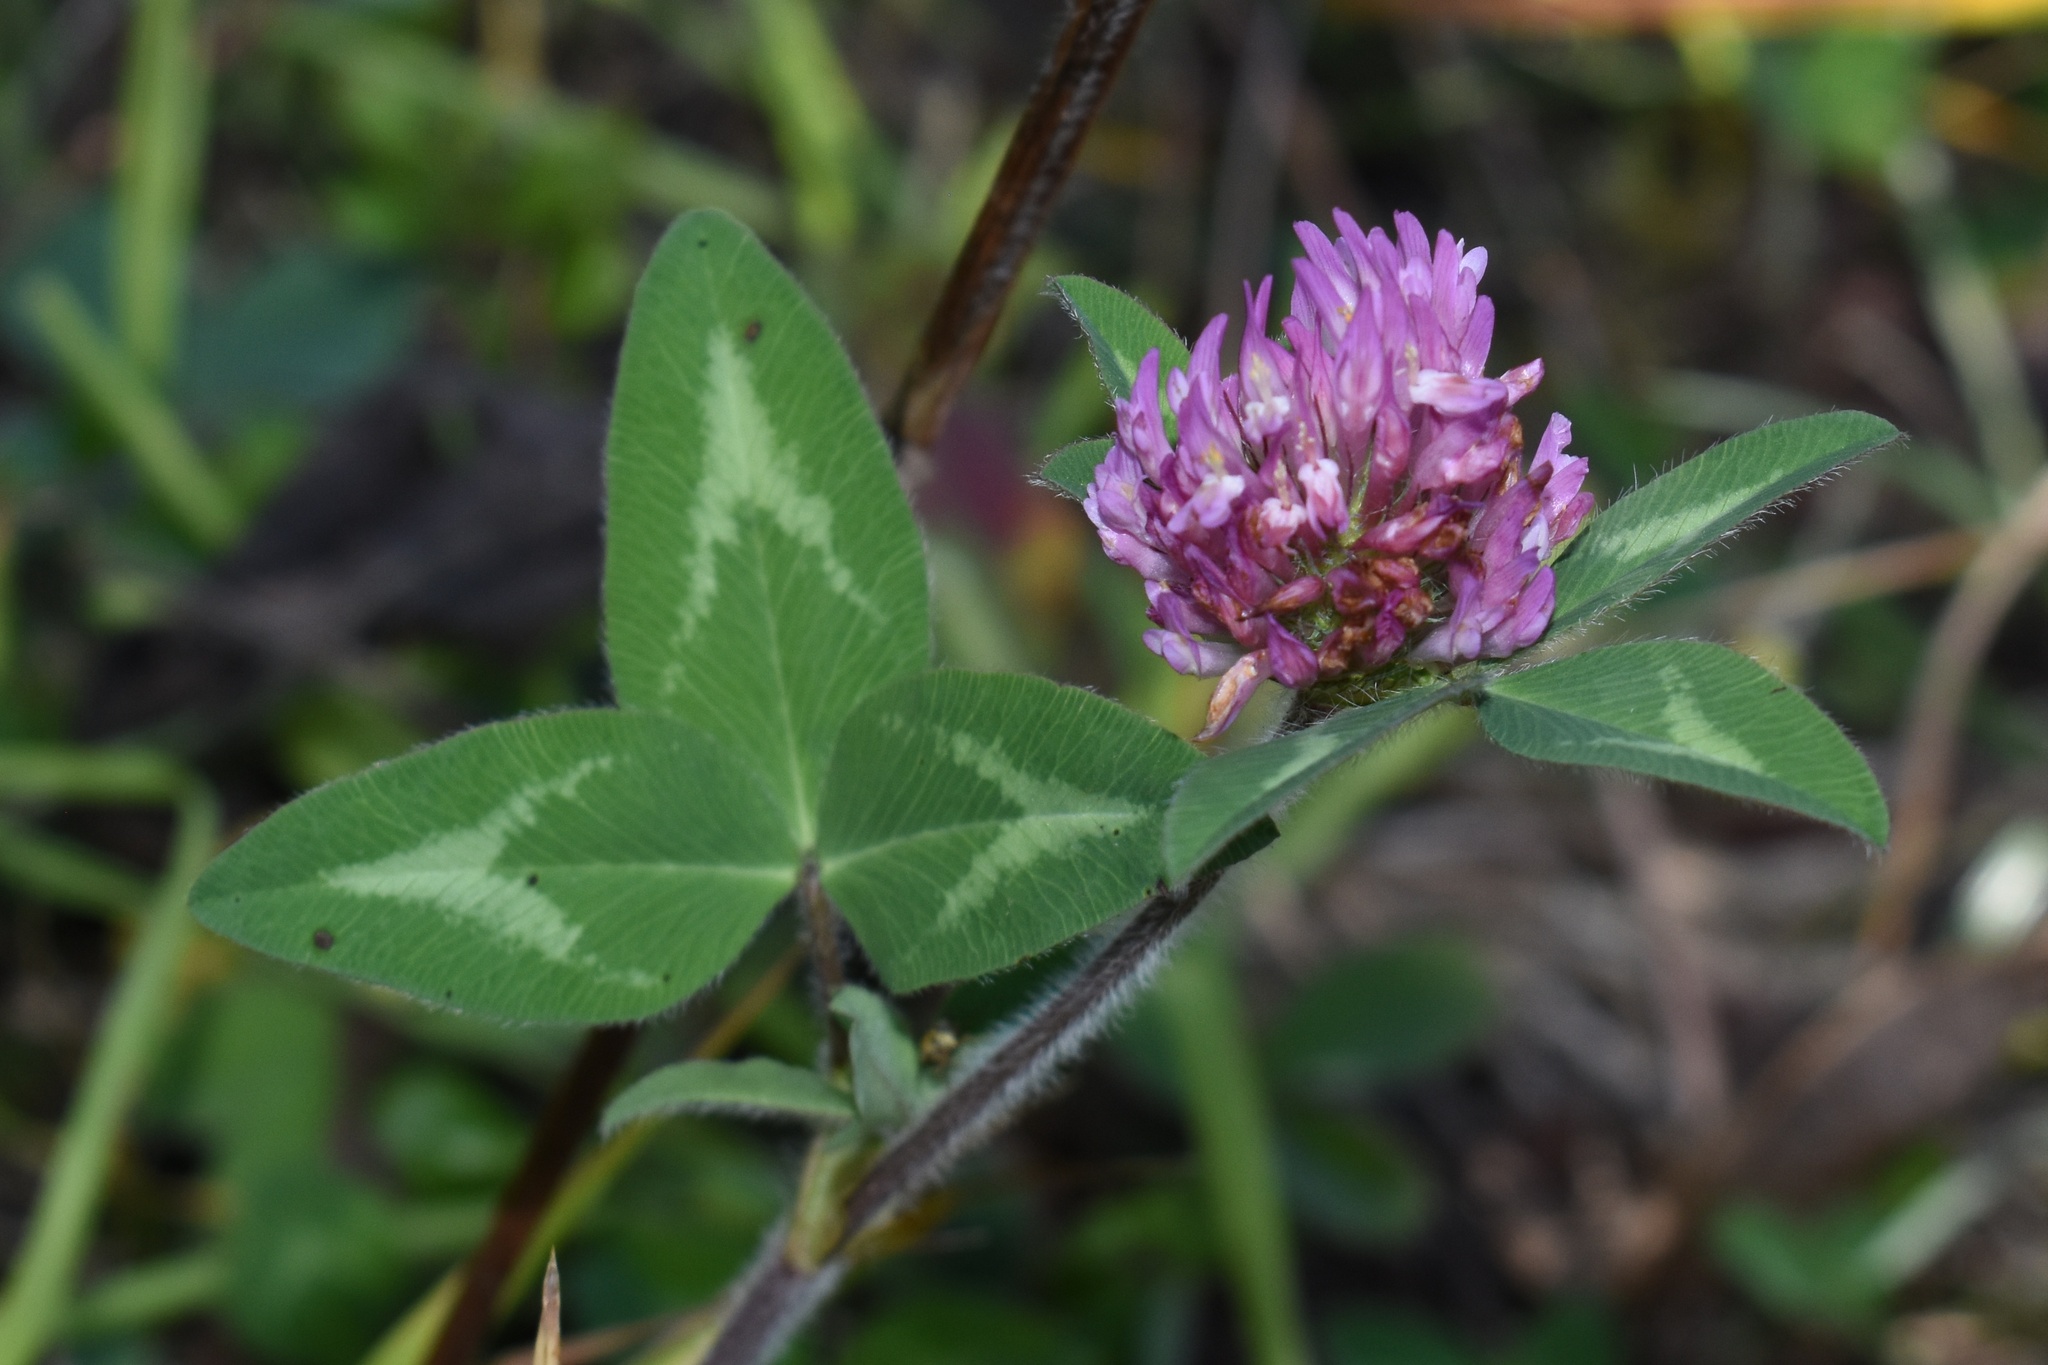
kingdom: Plantae
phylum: Tracheophyta
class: Magnoliopsida
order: Fabales
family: Fabaceae
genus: Trifolium
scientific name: Trifolium pratense
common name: Red clover
